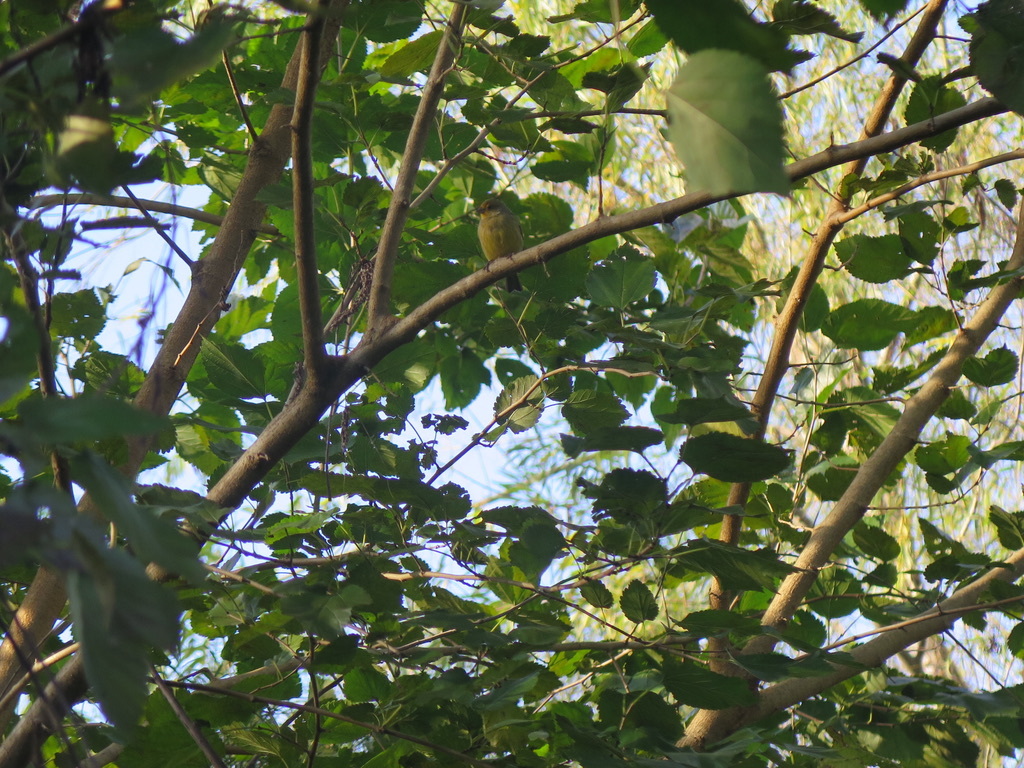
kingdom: Animalia
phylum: Chordata
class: Aves
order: Passeriformes
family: Thraupidae
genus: Sicalis
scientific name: Sicalis flaveola
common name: Saffron finch
